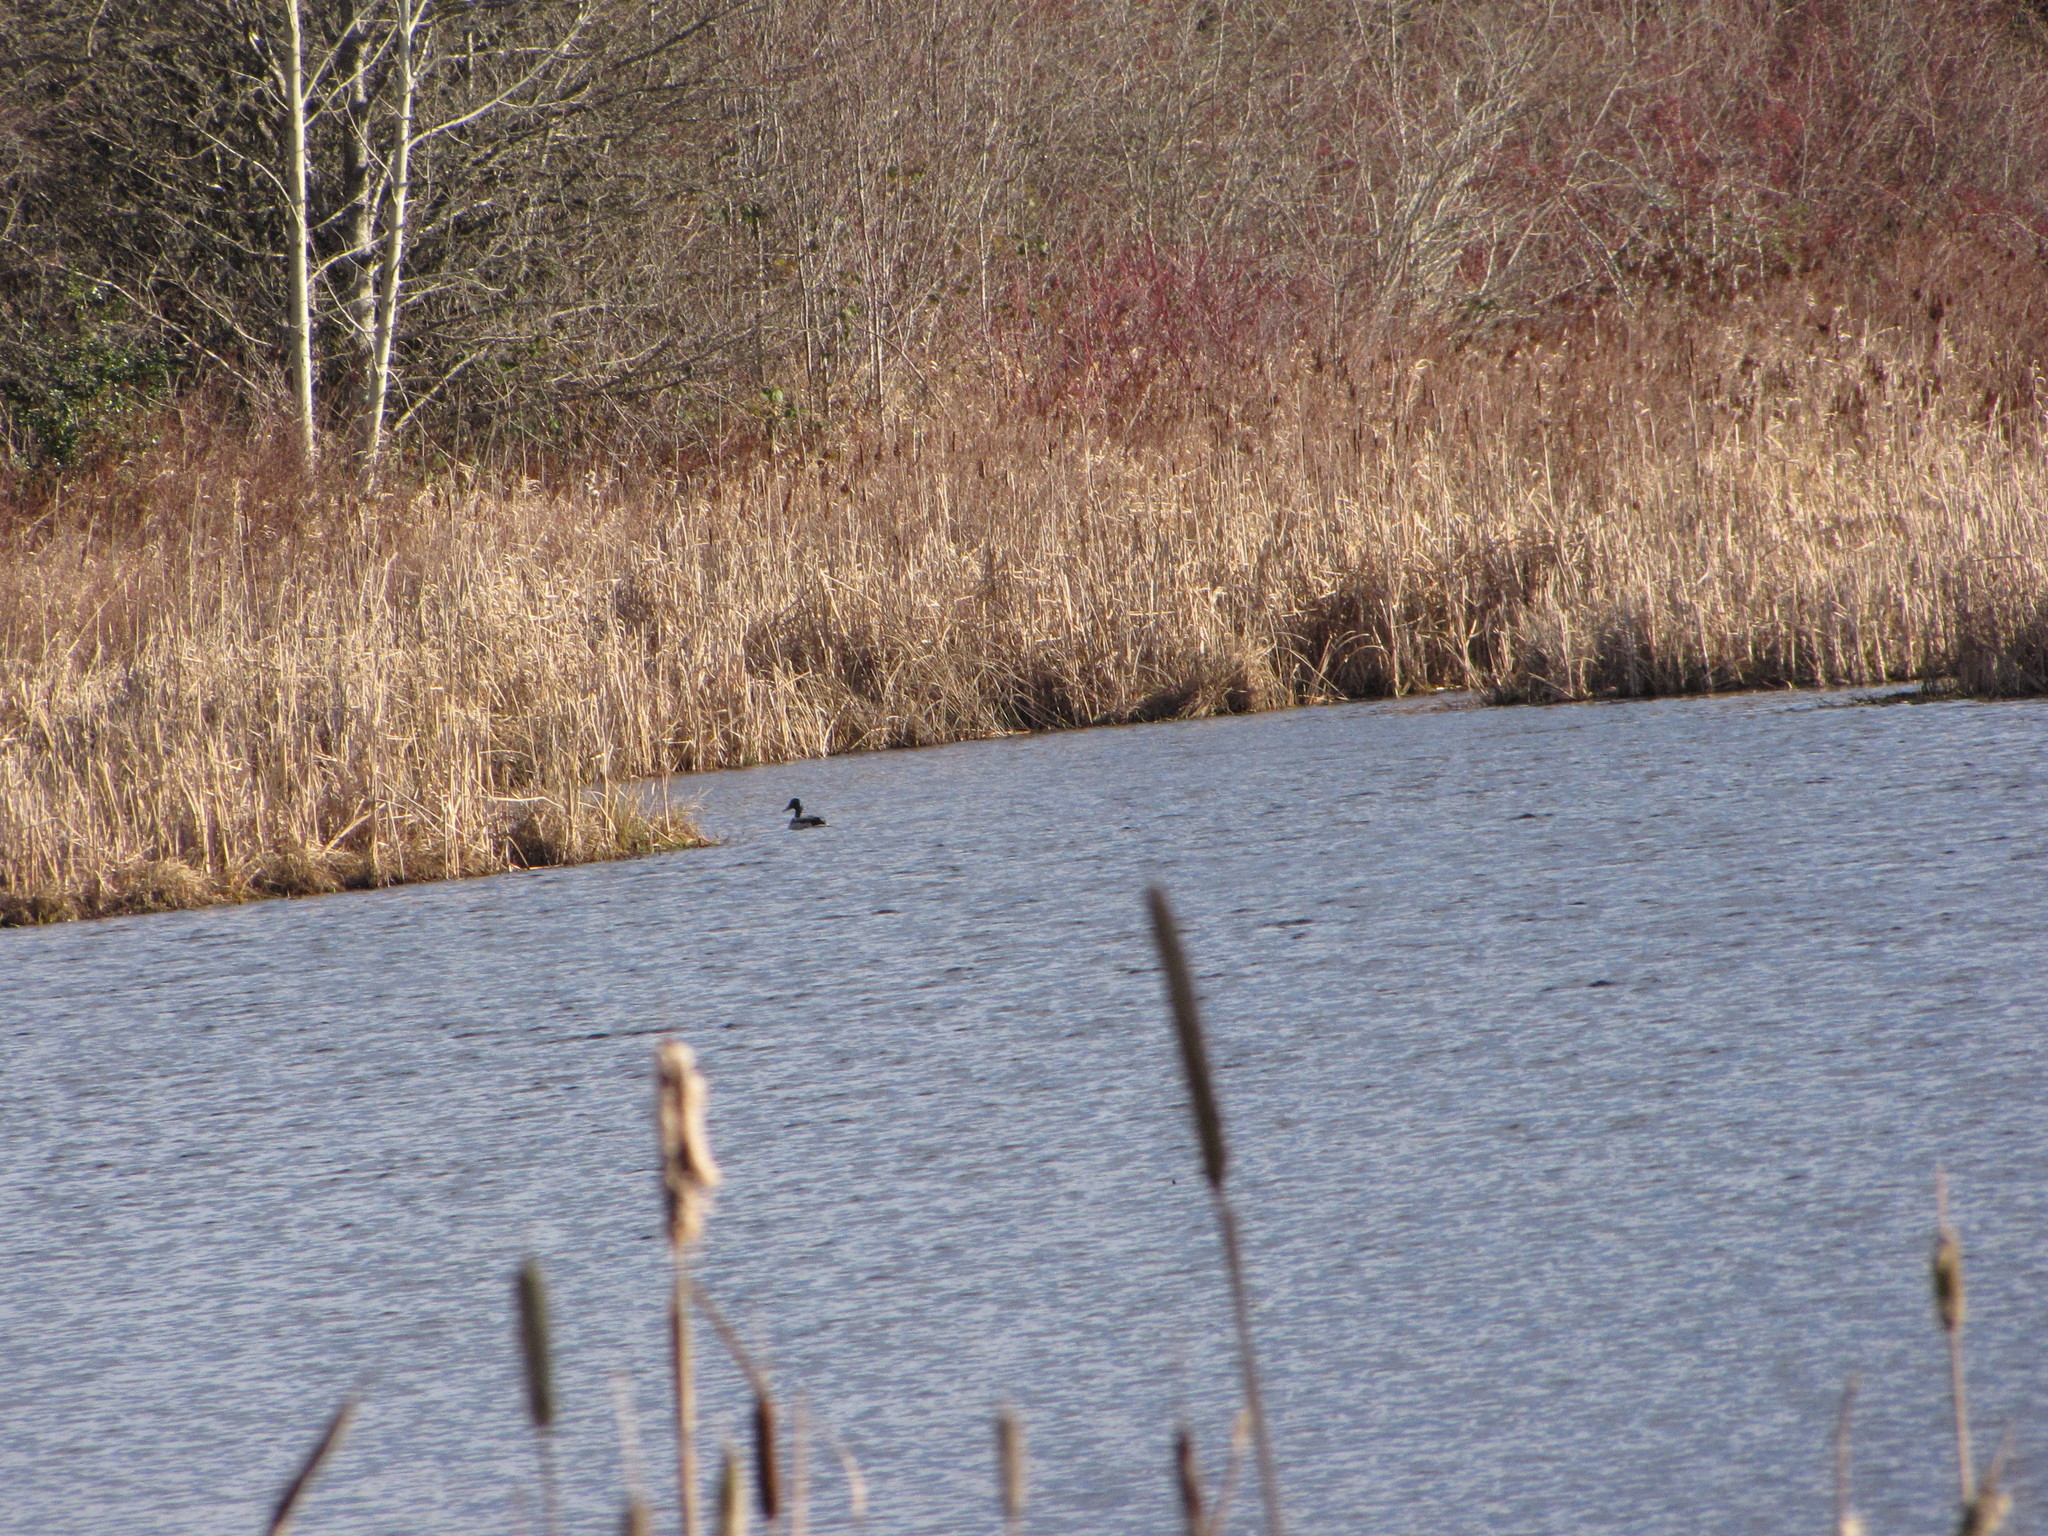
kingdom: Animalia
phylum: Chordata
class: Aves
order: Anseriformes
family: Anatidae
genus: Anas
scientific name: Anas platyrhynchos
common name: Mallard
